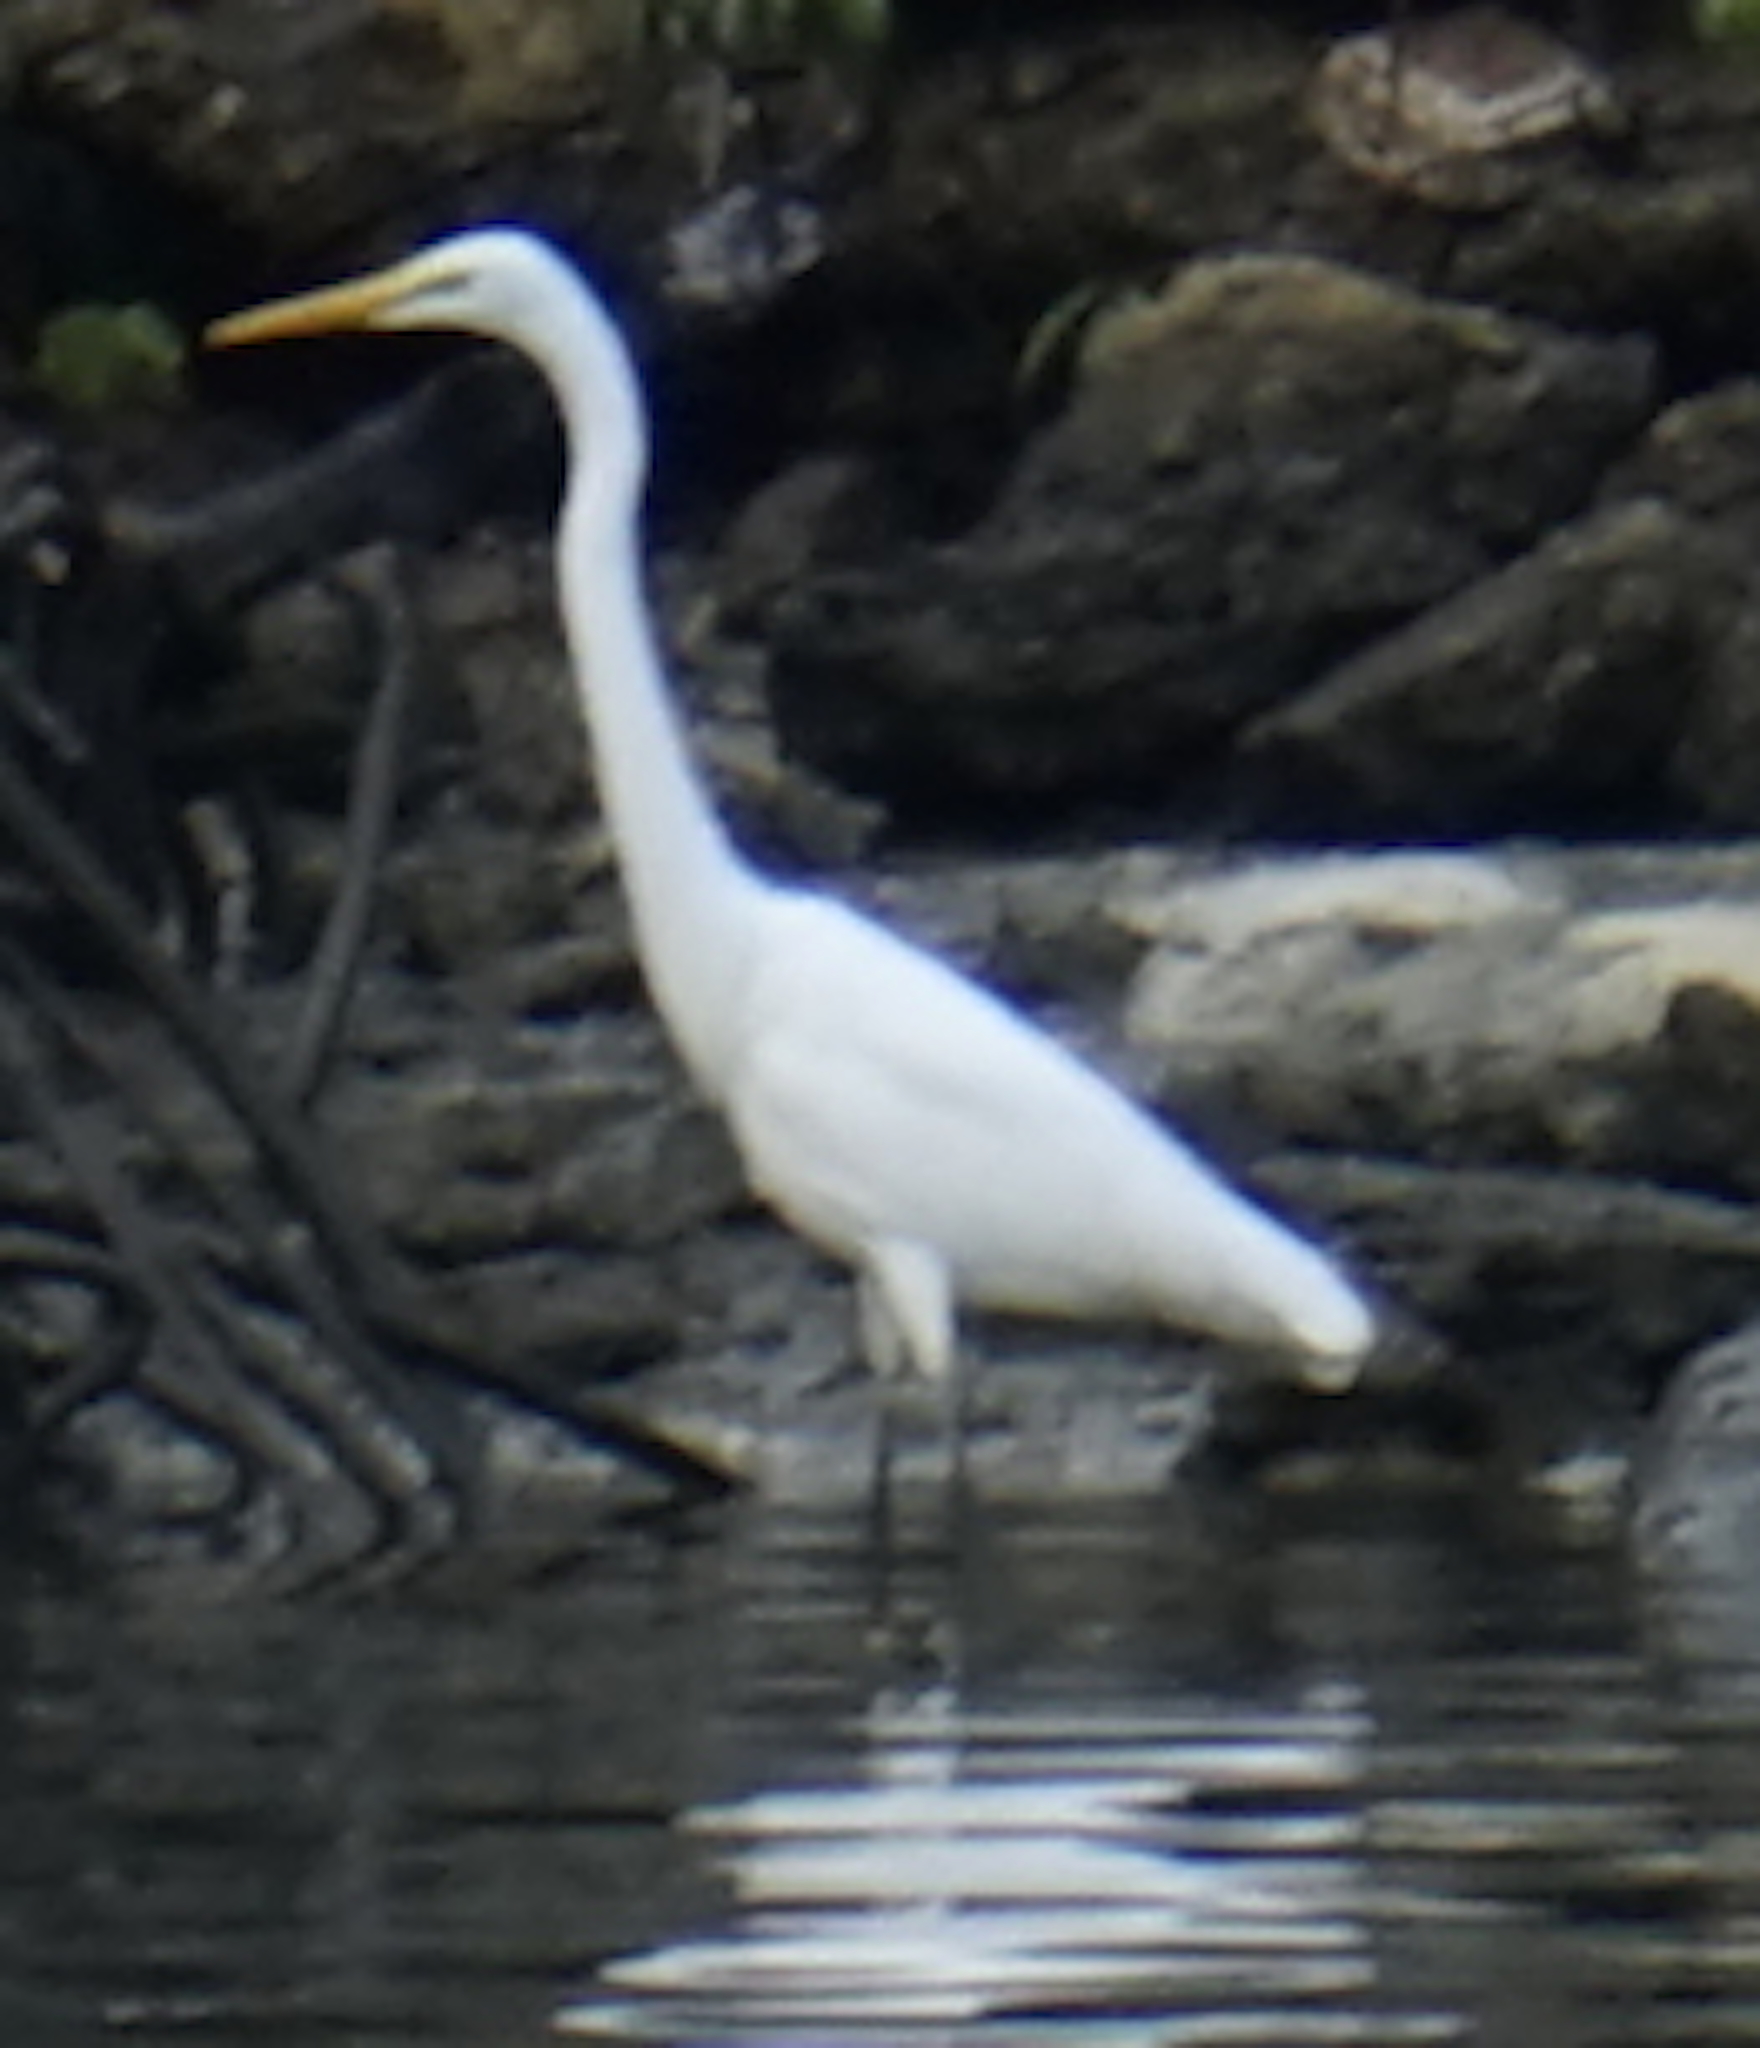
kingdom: Animalia
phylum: Chordata
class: Aves
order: Pelecaniformes
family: Ardeidae
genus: Ardea
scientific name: Ardea alba
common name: Great egret
